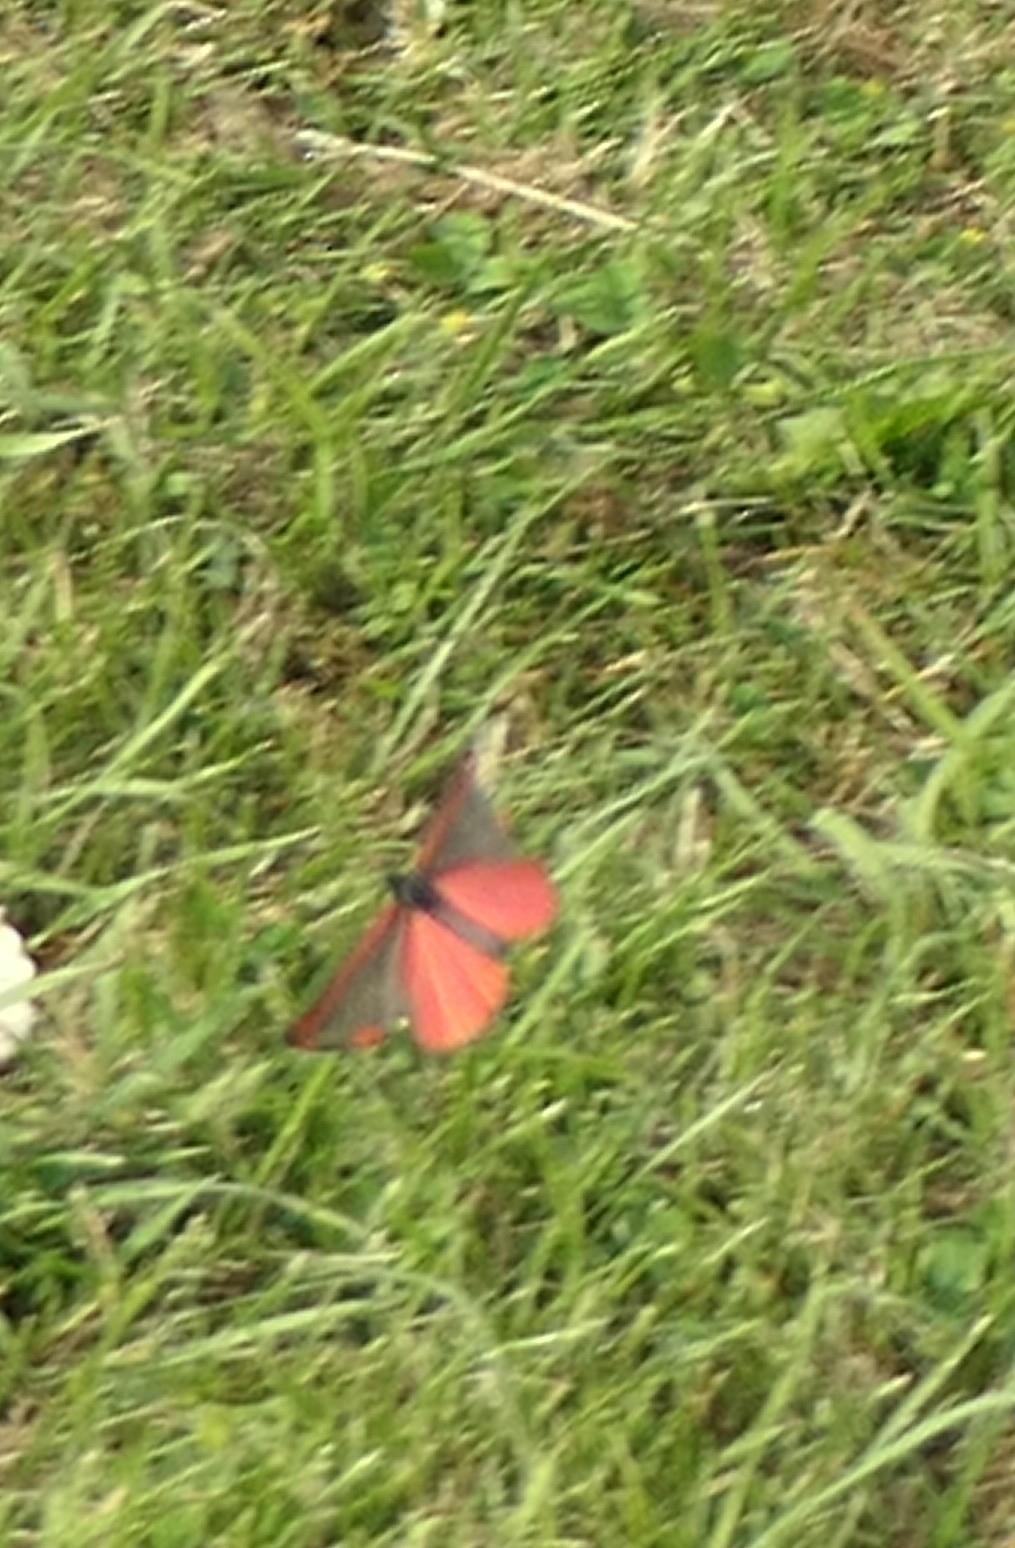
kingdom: Animalia
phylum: Arthropoda
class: Insecta
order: Lepidoptera
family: Erebidae
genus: Tyria
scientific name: Tyria jacobaeae
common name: Cinnabar
